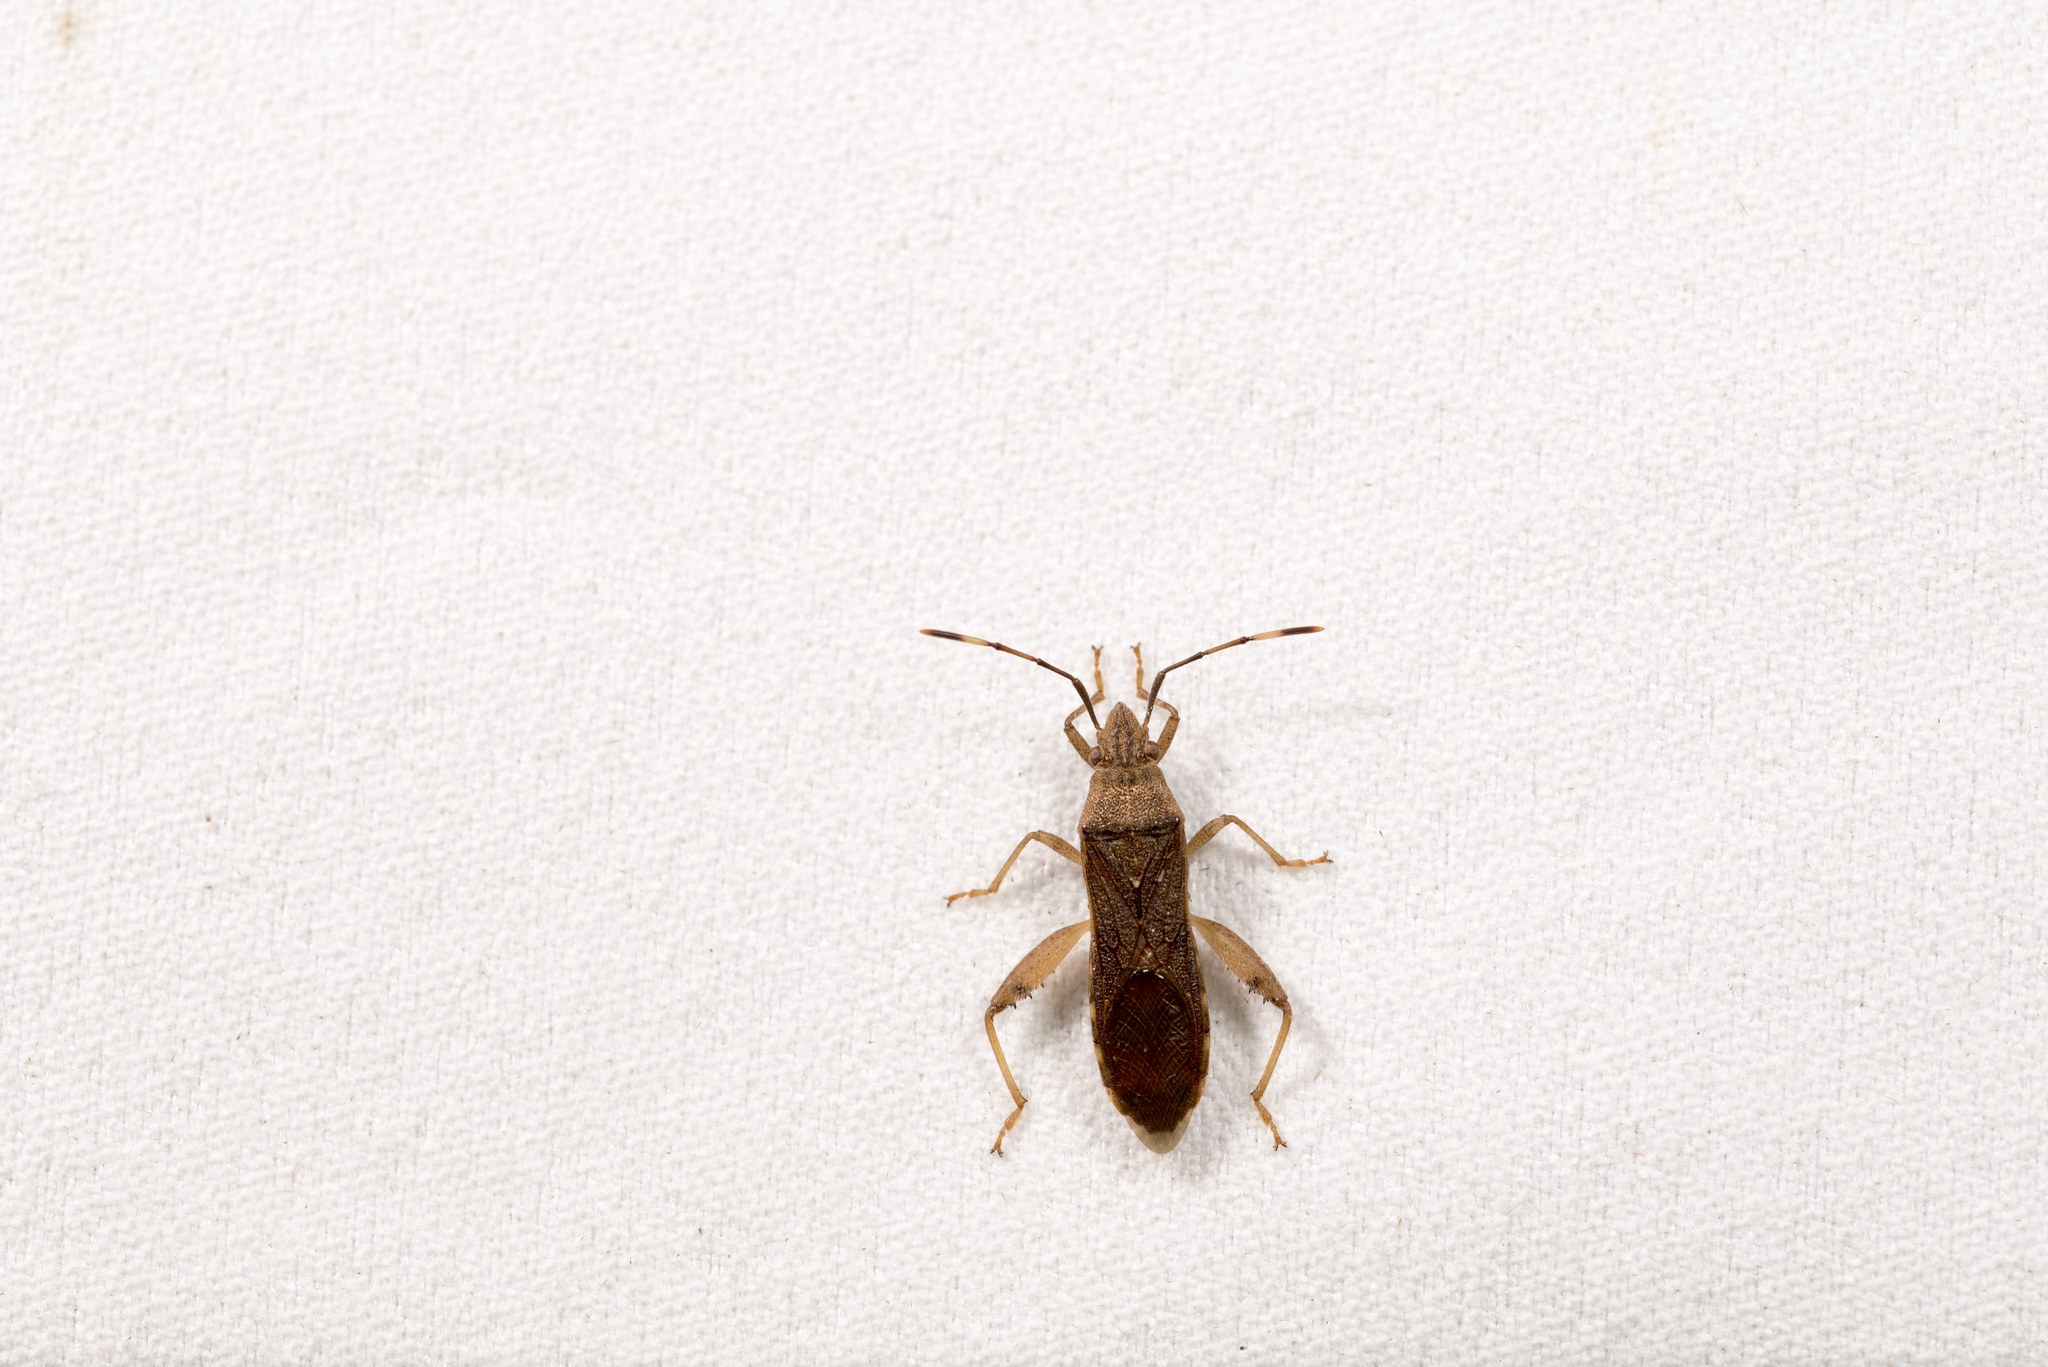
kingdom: Animalia
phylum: Arthropoda
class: Insecta
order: Hemiptera
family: Alydidae
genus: Daclera
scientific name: Daclera levana
